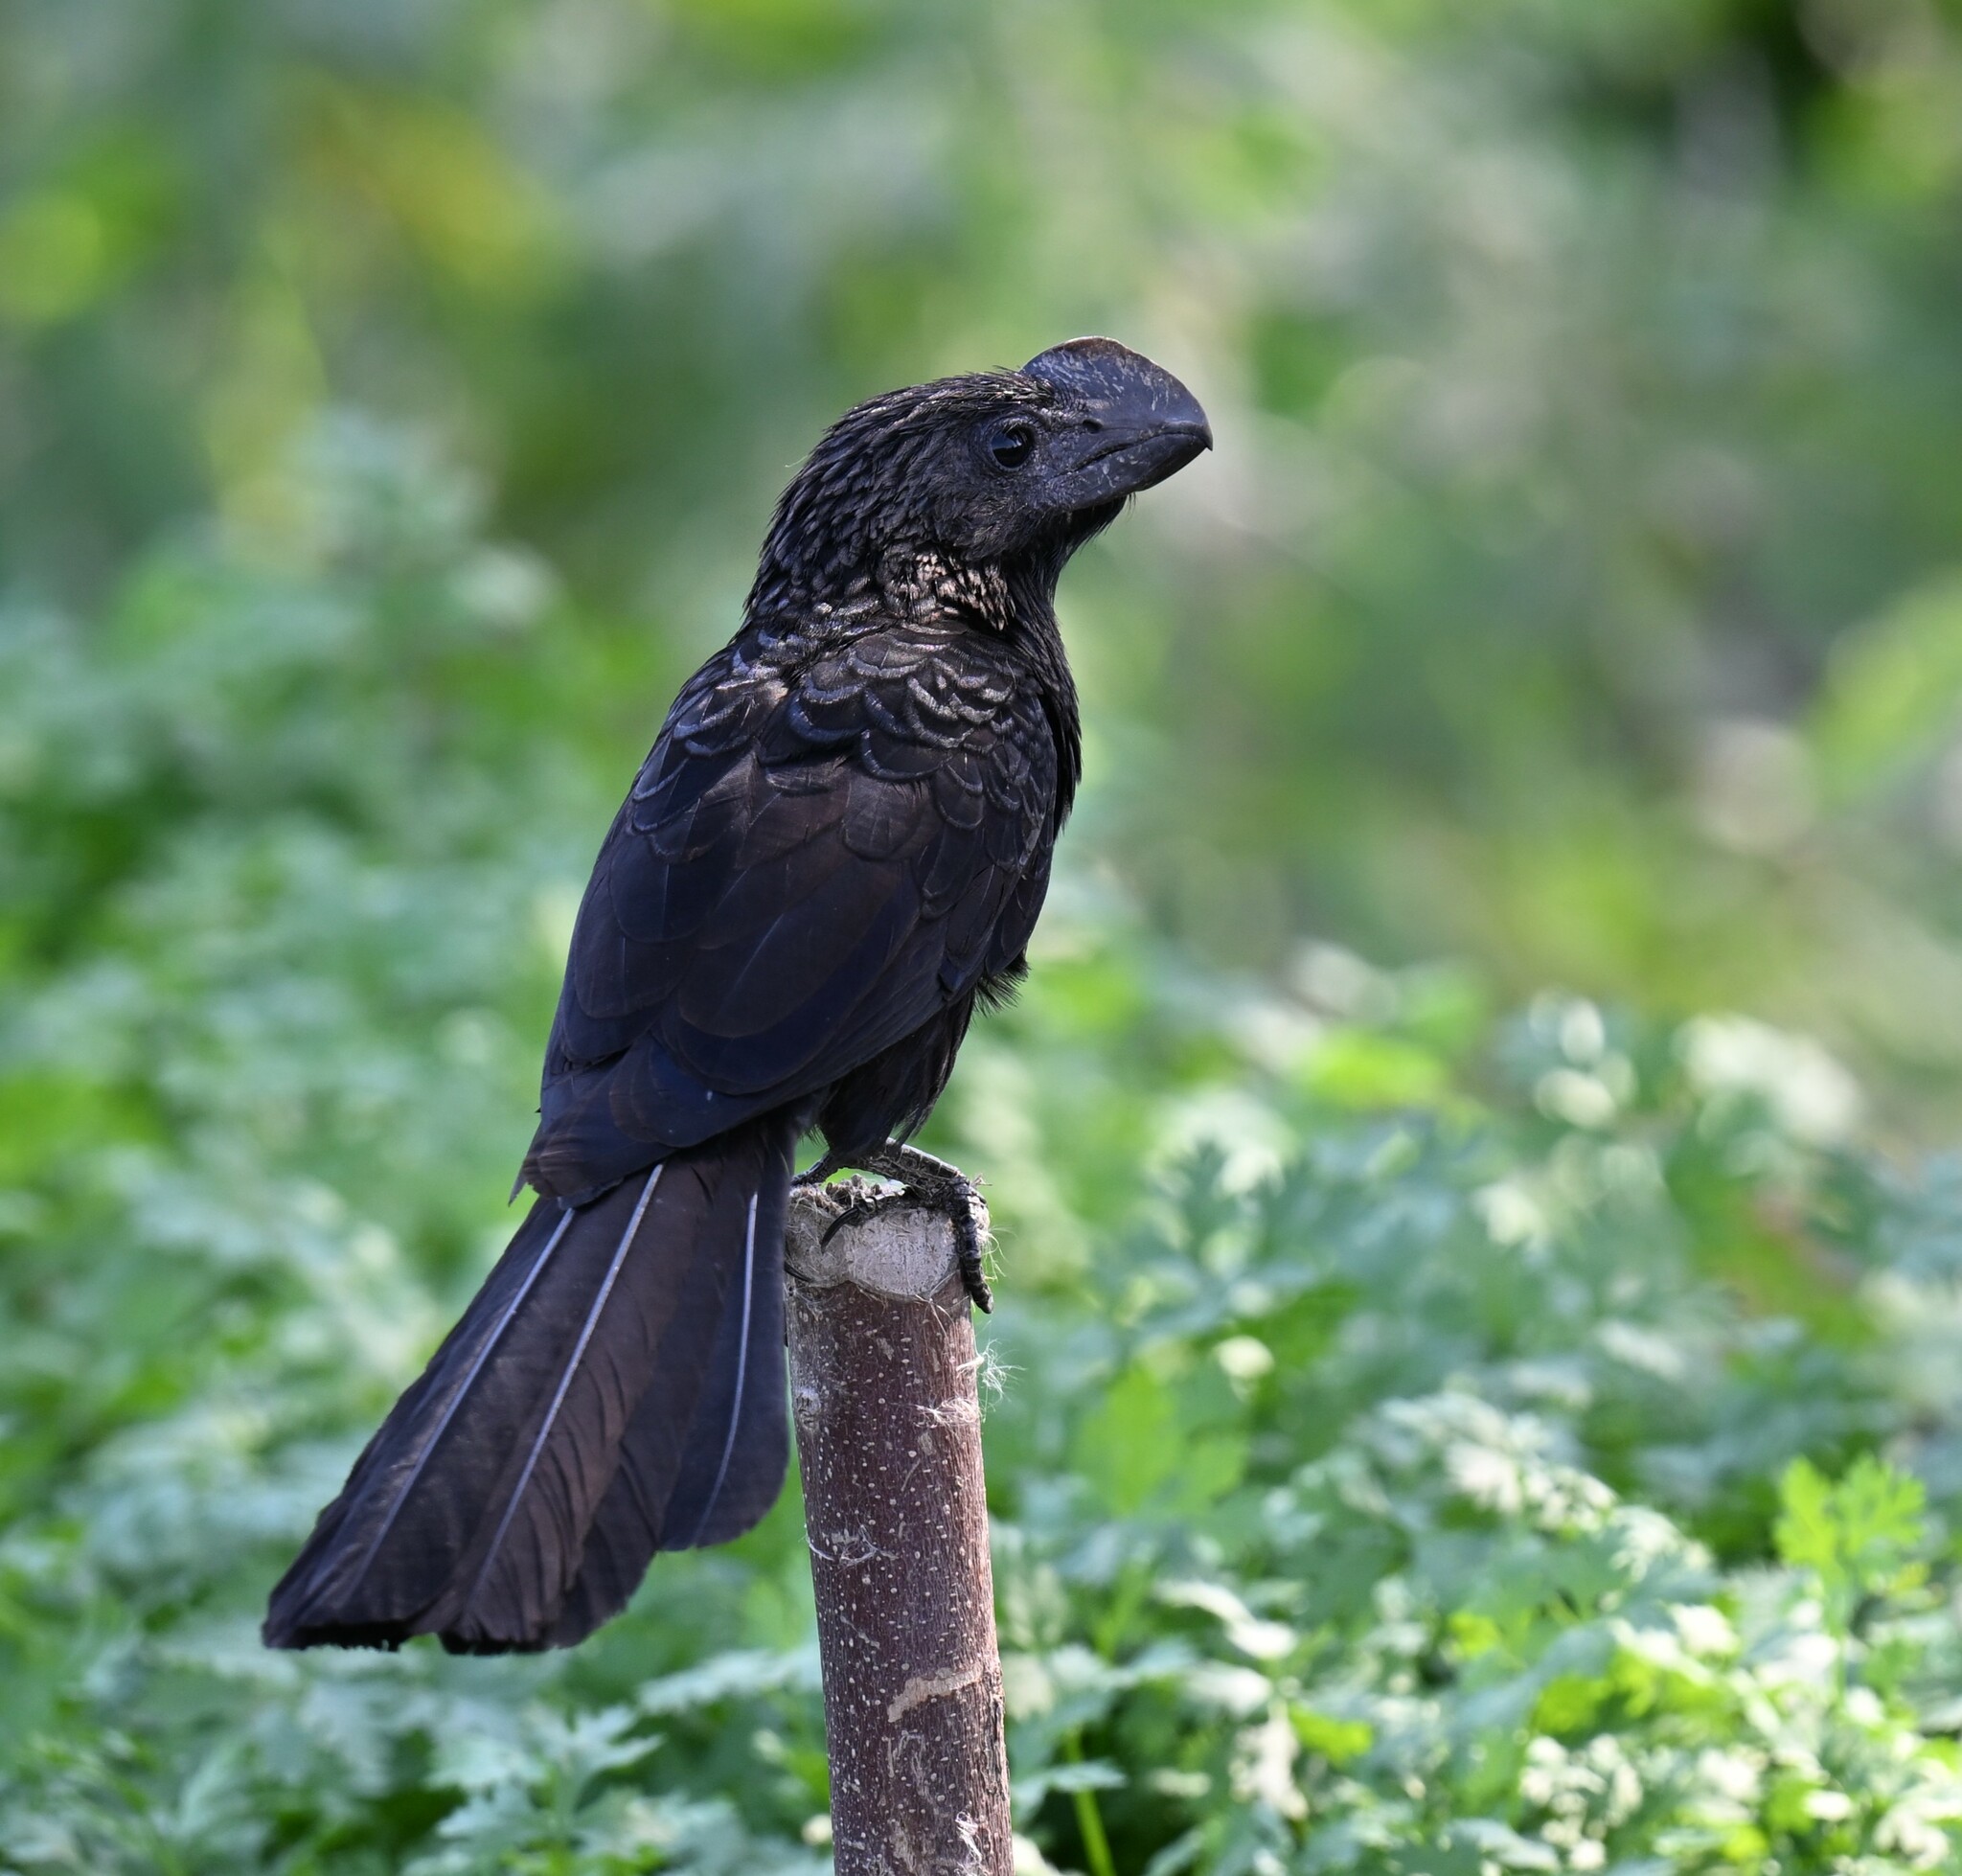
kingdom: Animalia
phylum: Chordata
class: Aves
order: Cuculiformes
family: Cuculidae
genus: Crotophaga
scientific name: Crotophaga ani
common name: Smooth-billed ani
